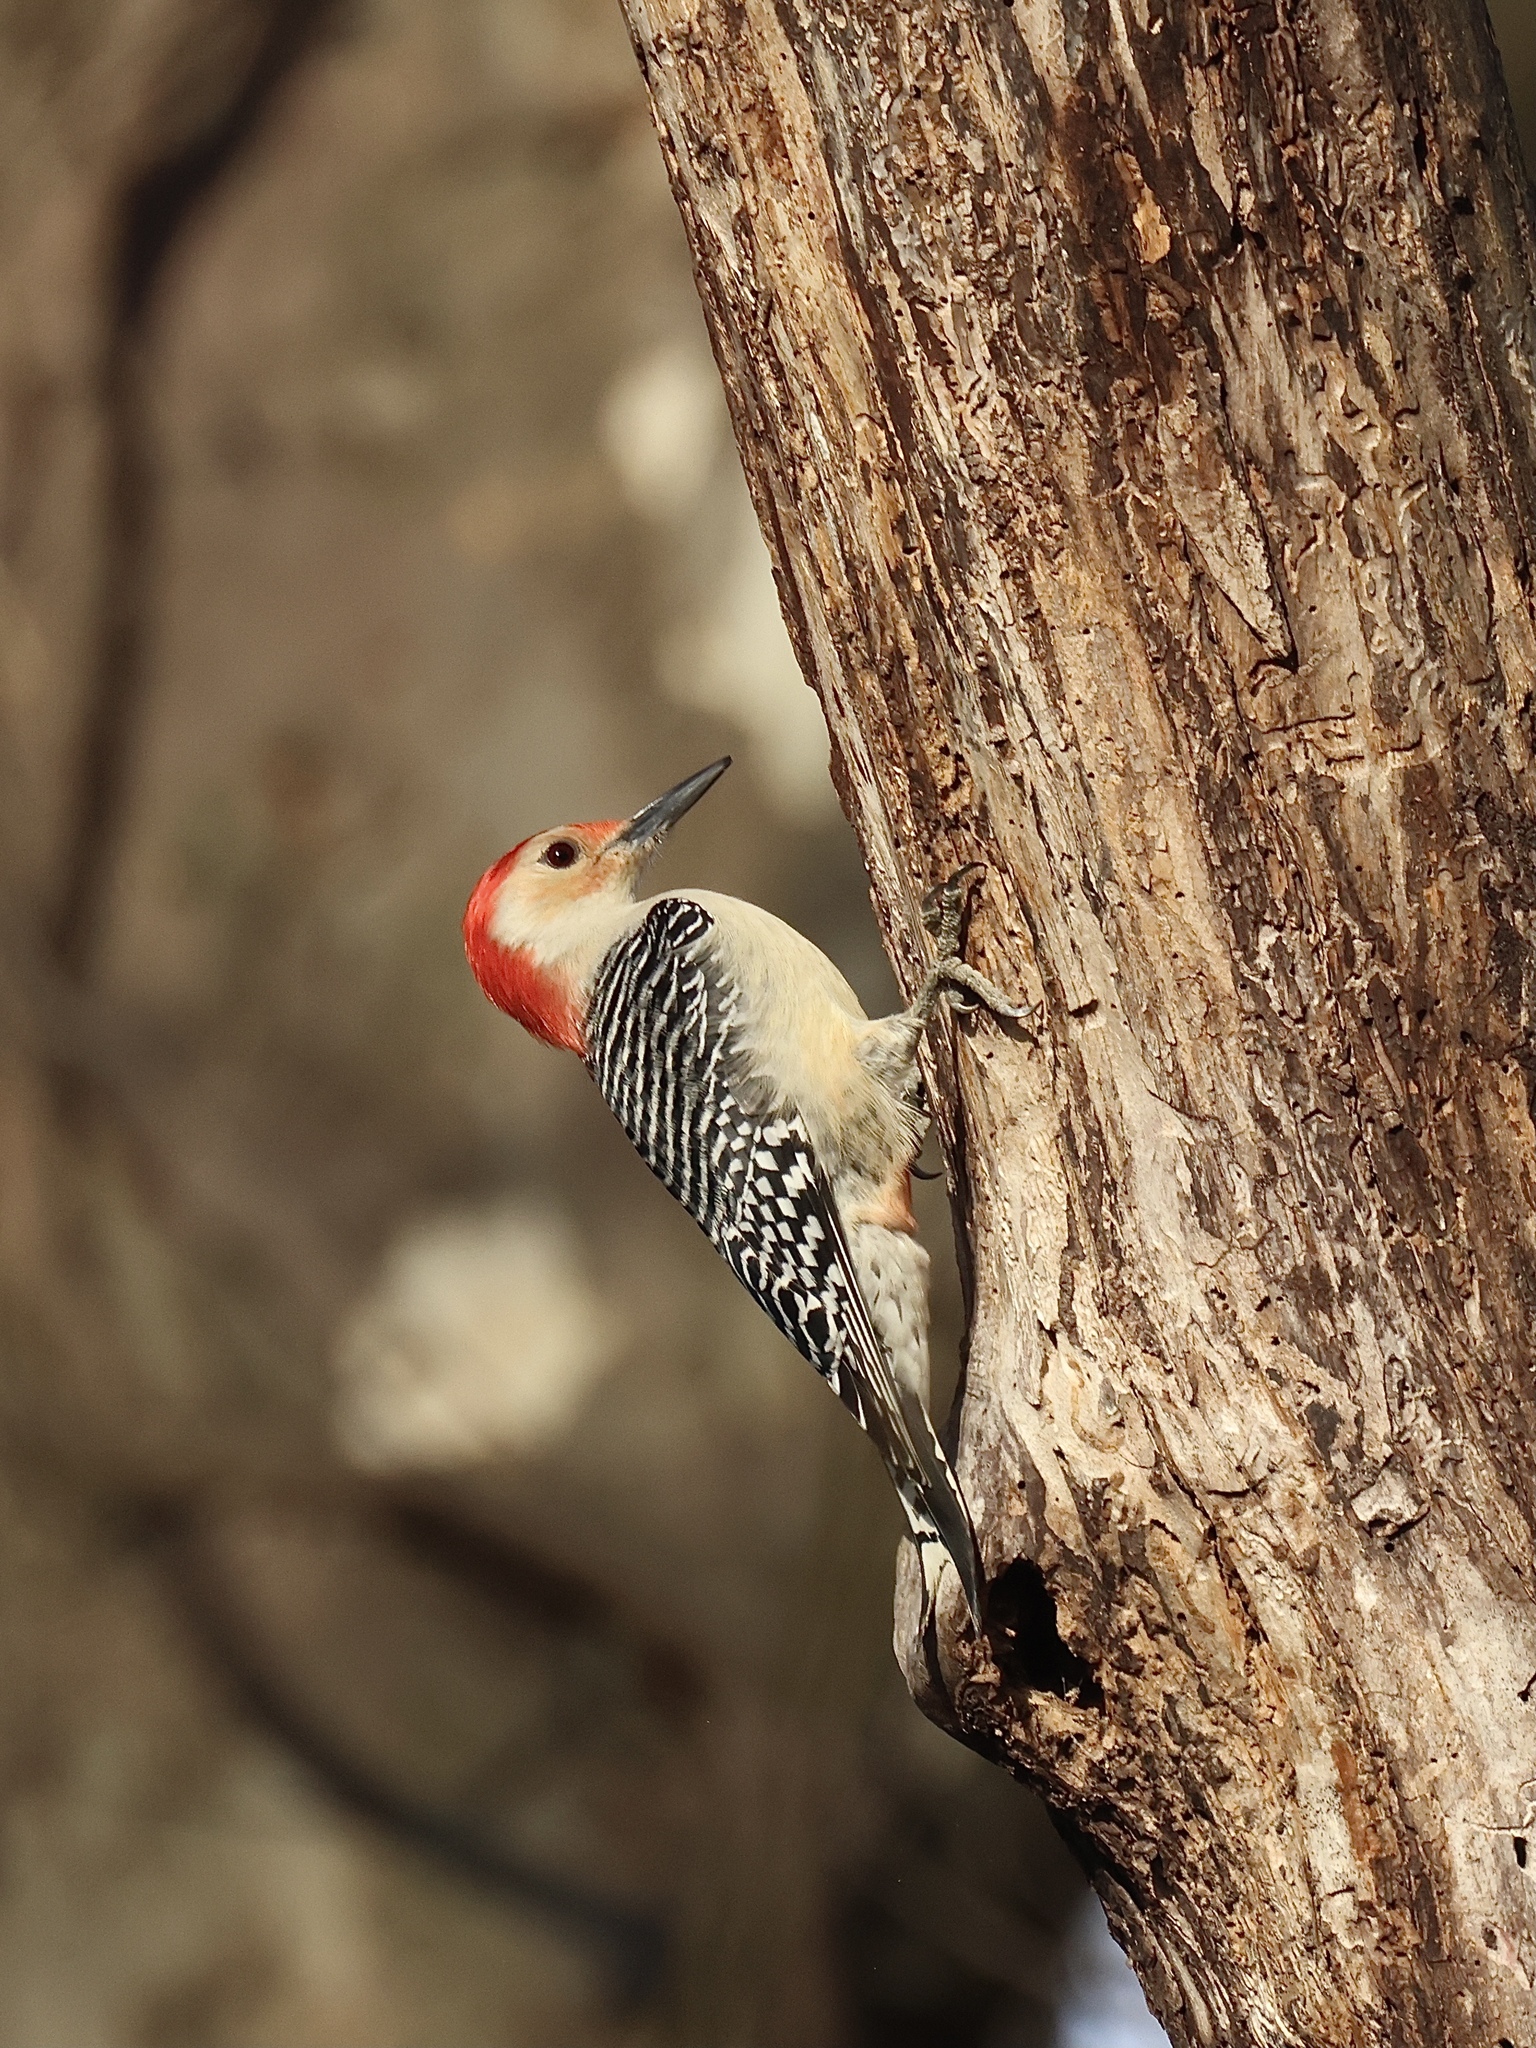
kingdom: Animalia
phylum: Chordata
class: Aves
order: Piciformes
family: Picidae
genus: Melanerpes
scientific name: Melanerpes carolinus
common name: Red-bellied woodpecker
